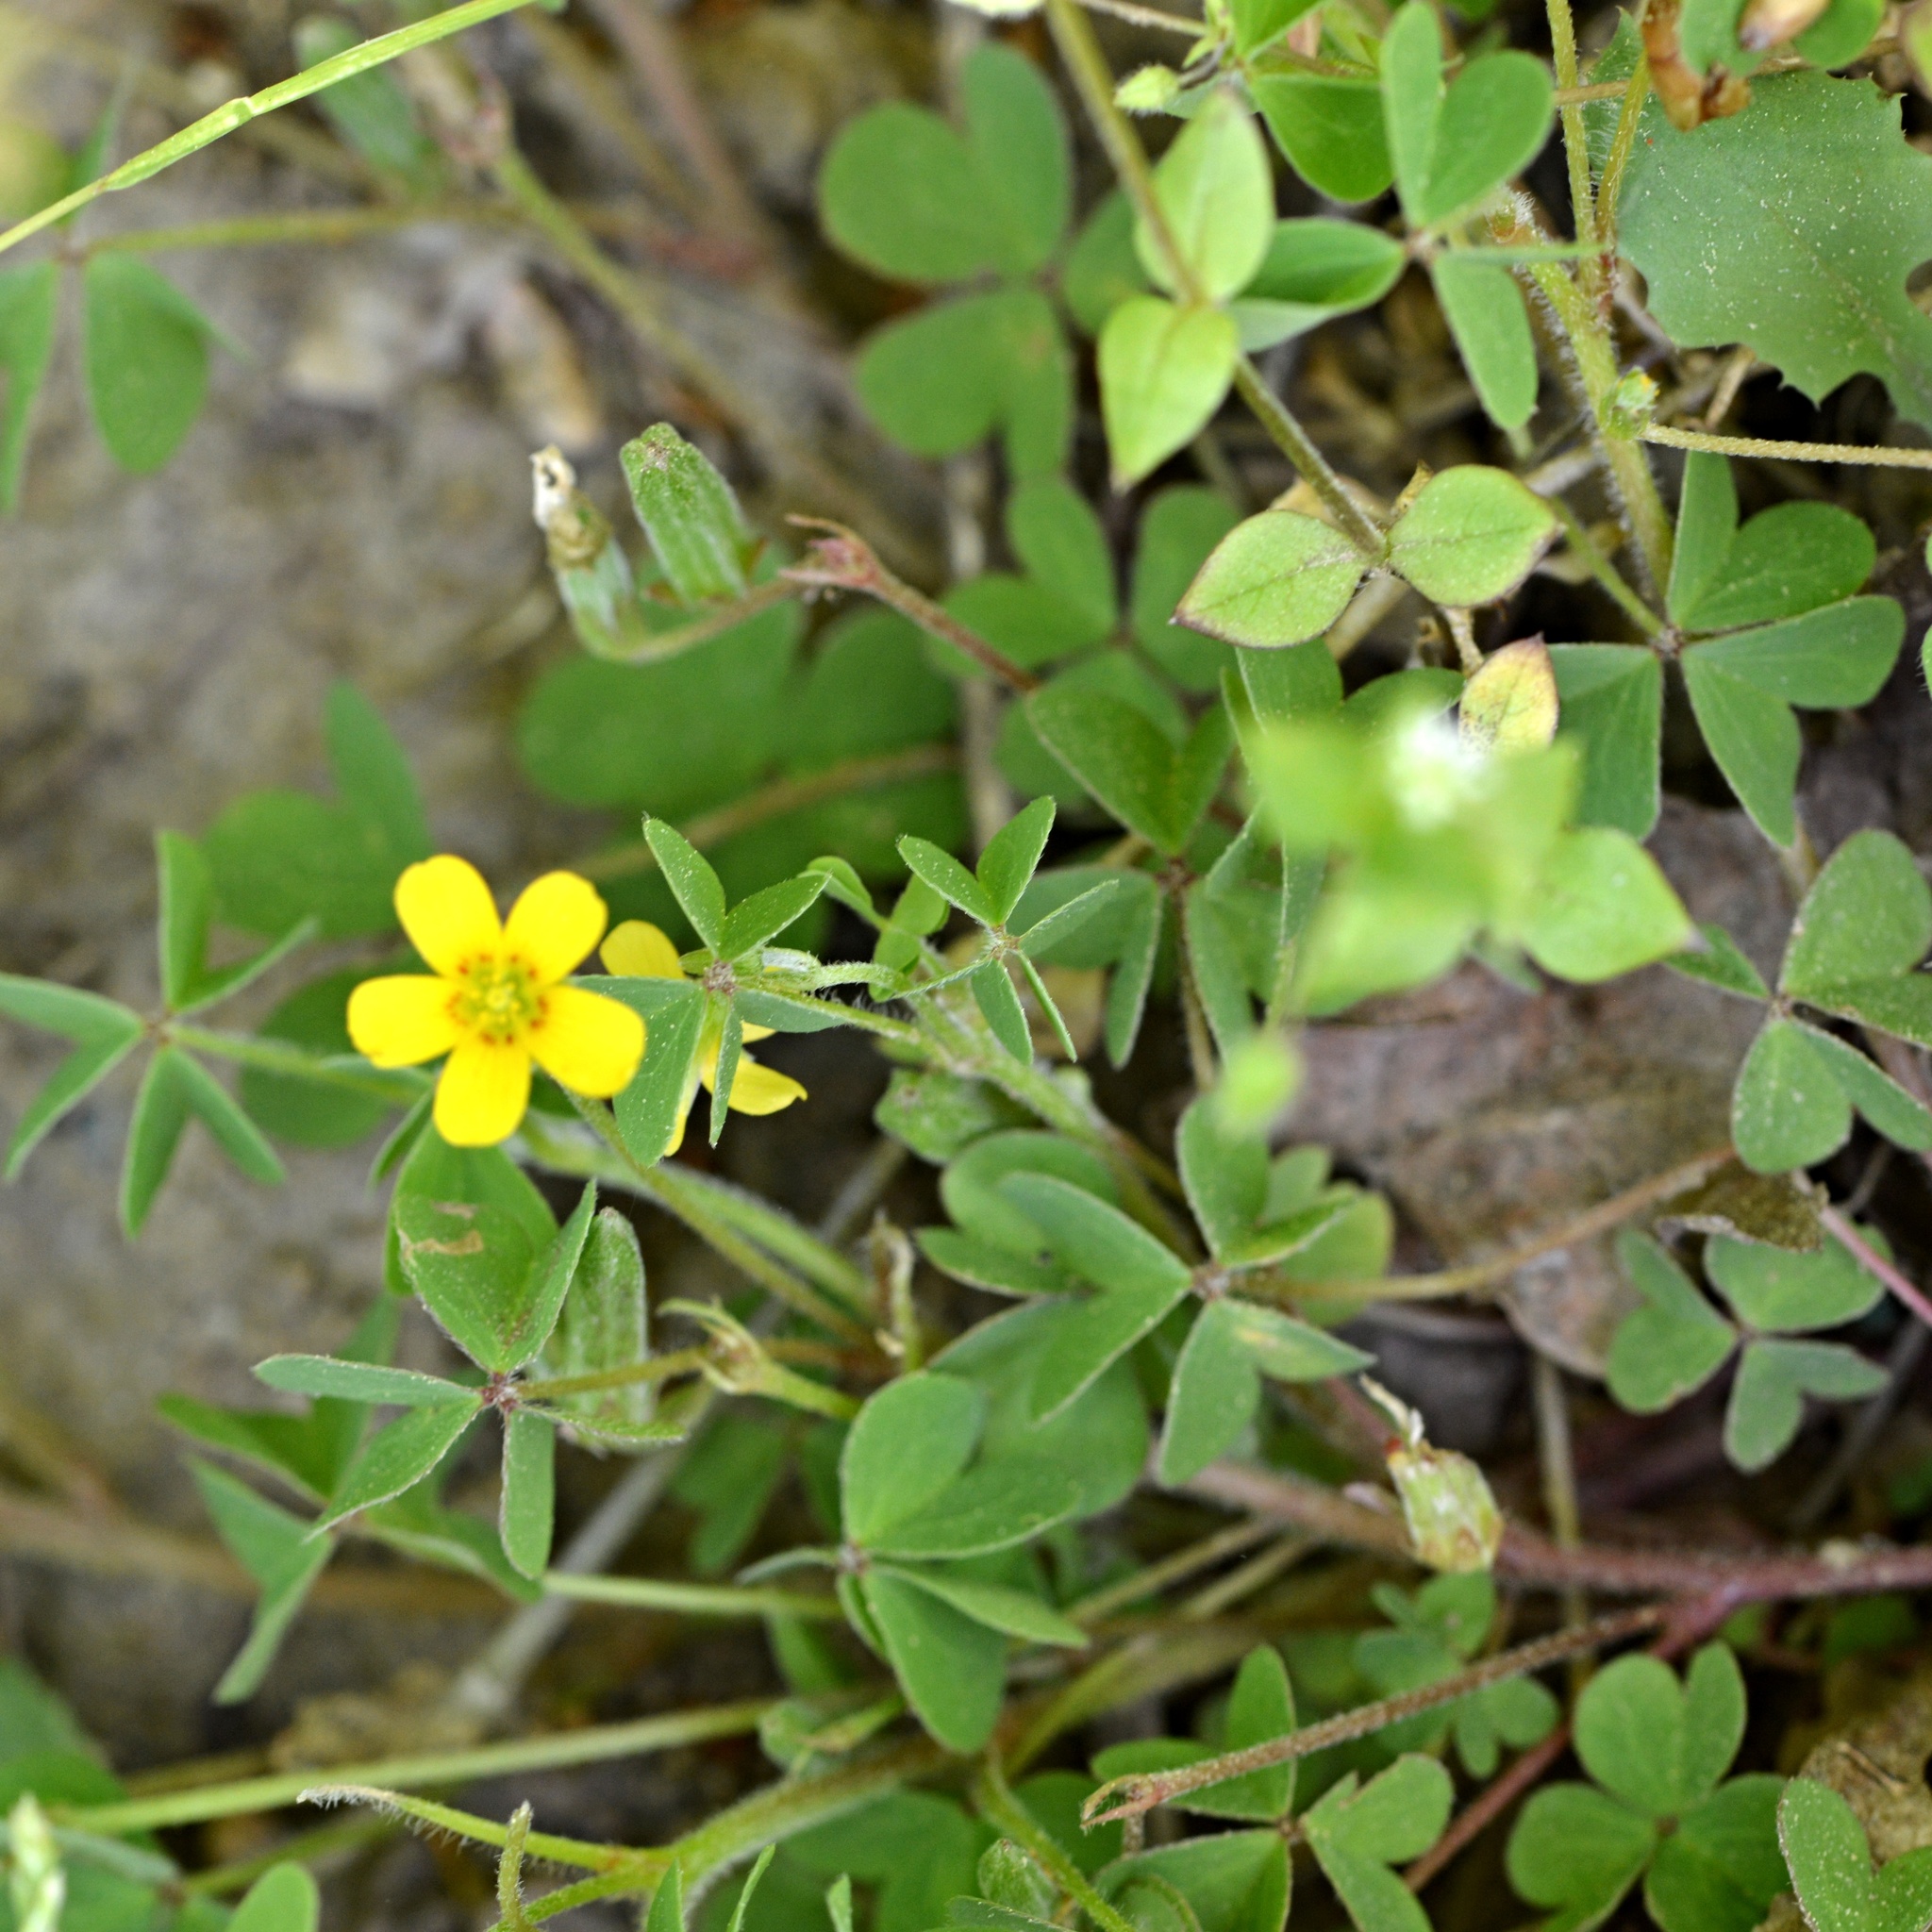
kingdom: Plantae
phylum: Tracheophyta
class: Magnoliopsida
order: Oxalidales
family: Oxalidaceae
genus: Oxalis
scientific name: Oxalis dillenii
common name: Sussex yellow-sorrel
